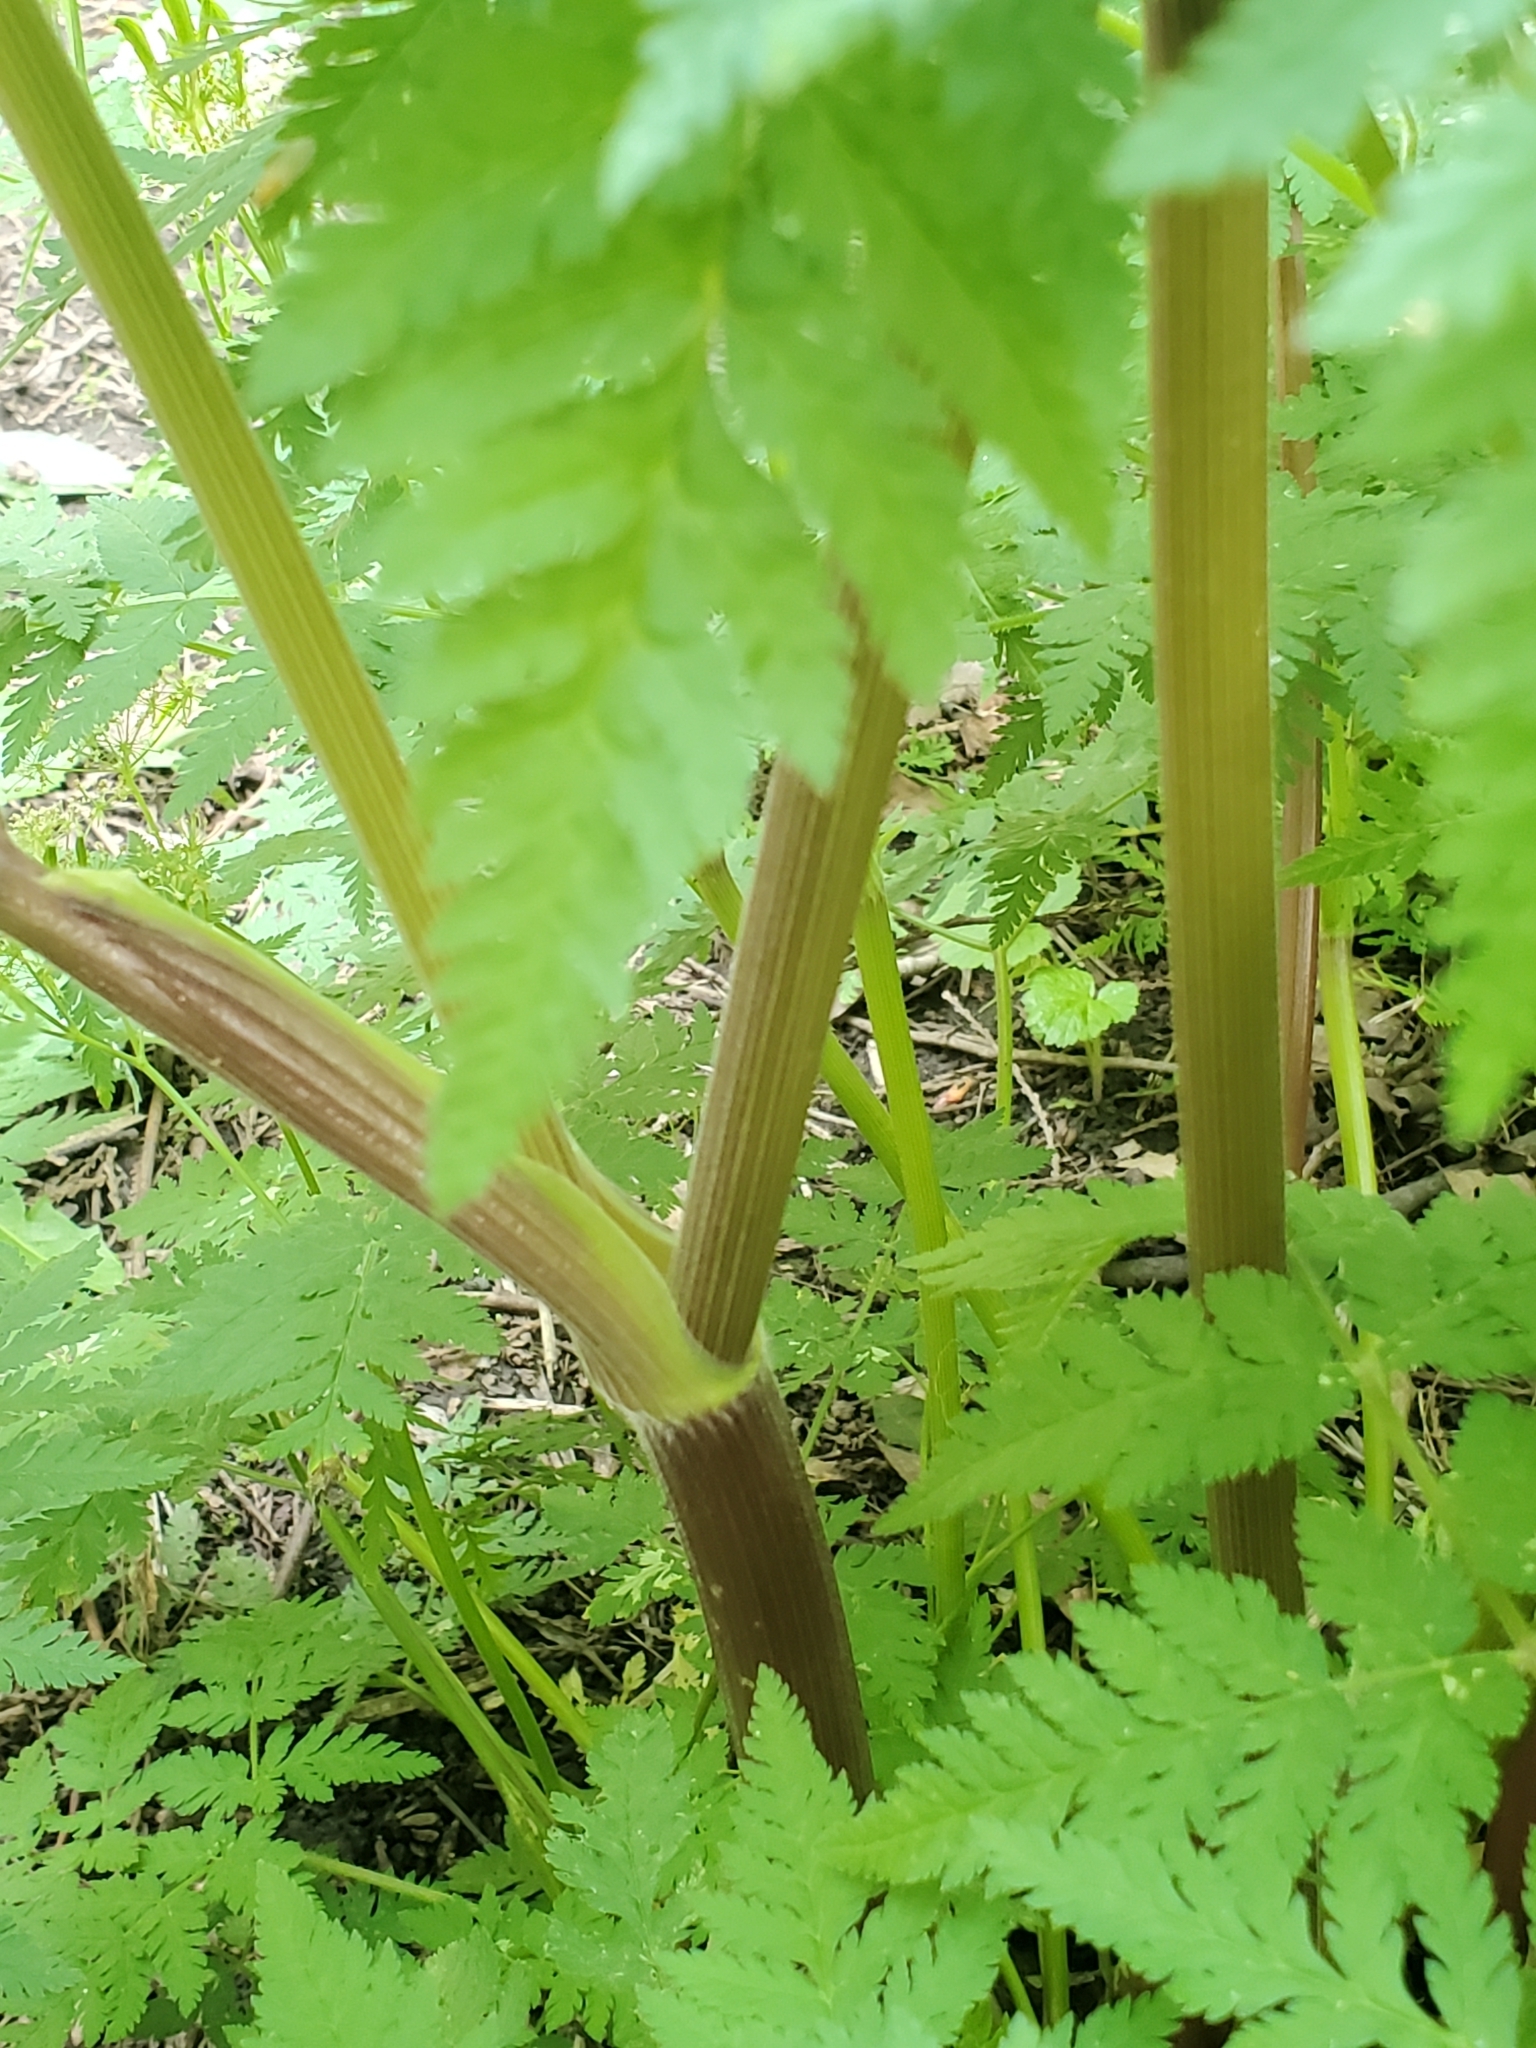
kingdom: Plantae
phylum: Tracheophyta
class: Magnoliopsida
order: Apiales
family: Apiaceae
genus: Myrrhis
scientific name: Myrrhis odorata
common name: Sweet cicely
